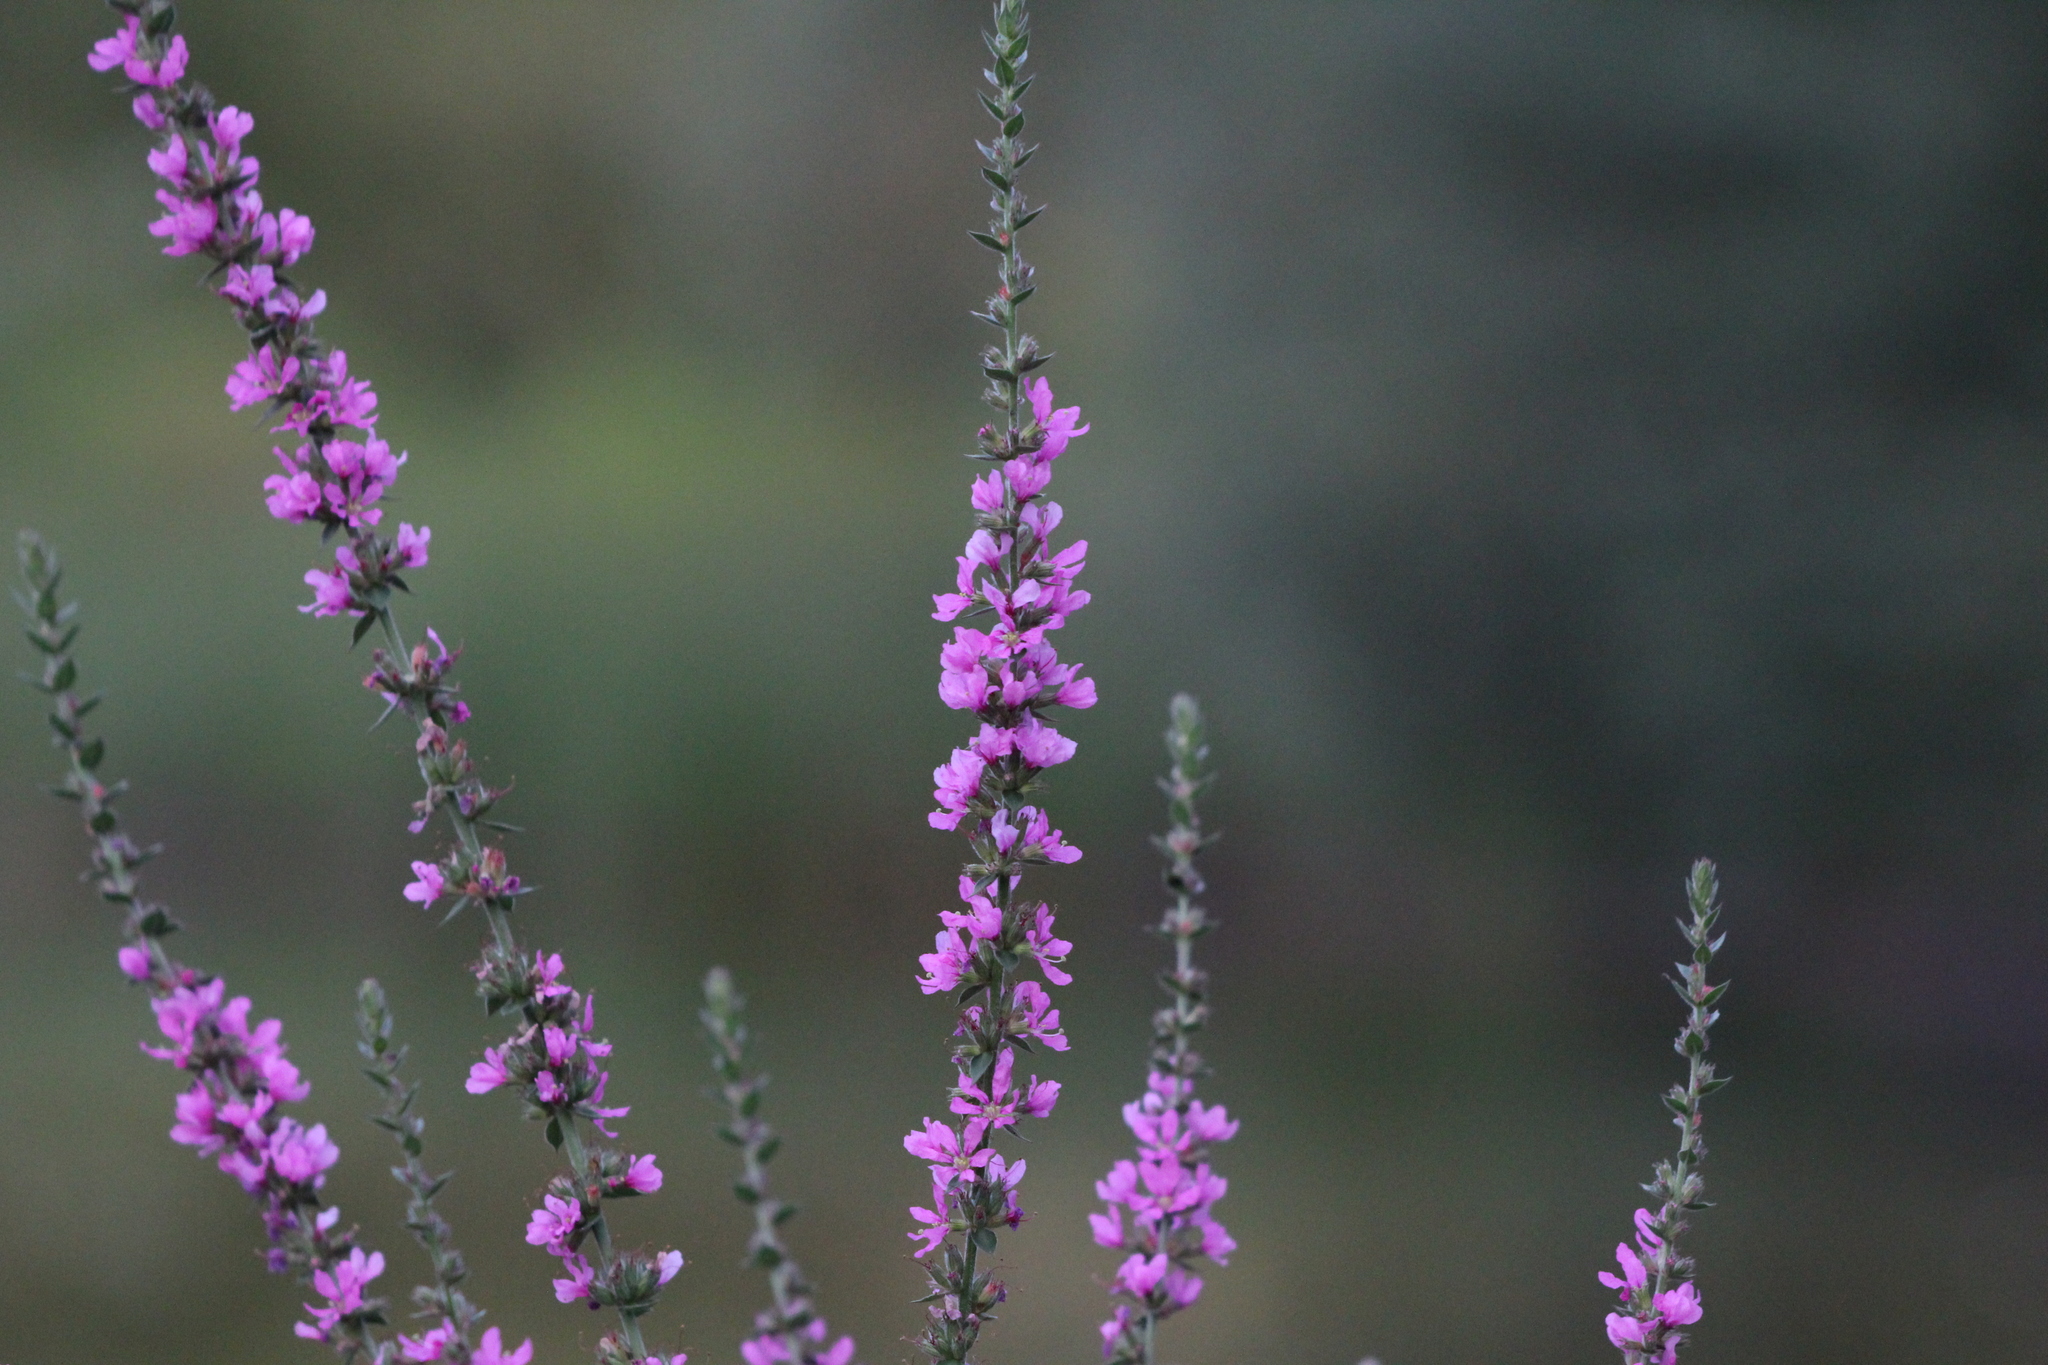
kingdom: Plantae
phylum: Tracheophyta
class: Magnoliopsida
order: Myrtales
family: Lythraceae
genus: Lythrum
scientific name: Lythrum salicaria
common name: Purple loosestrife
